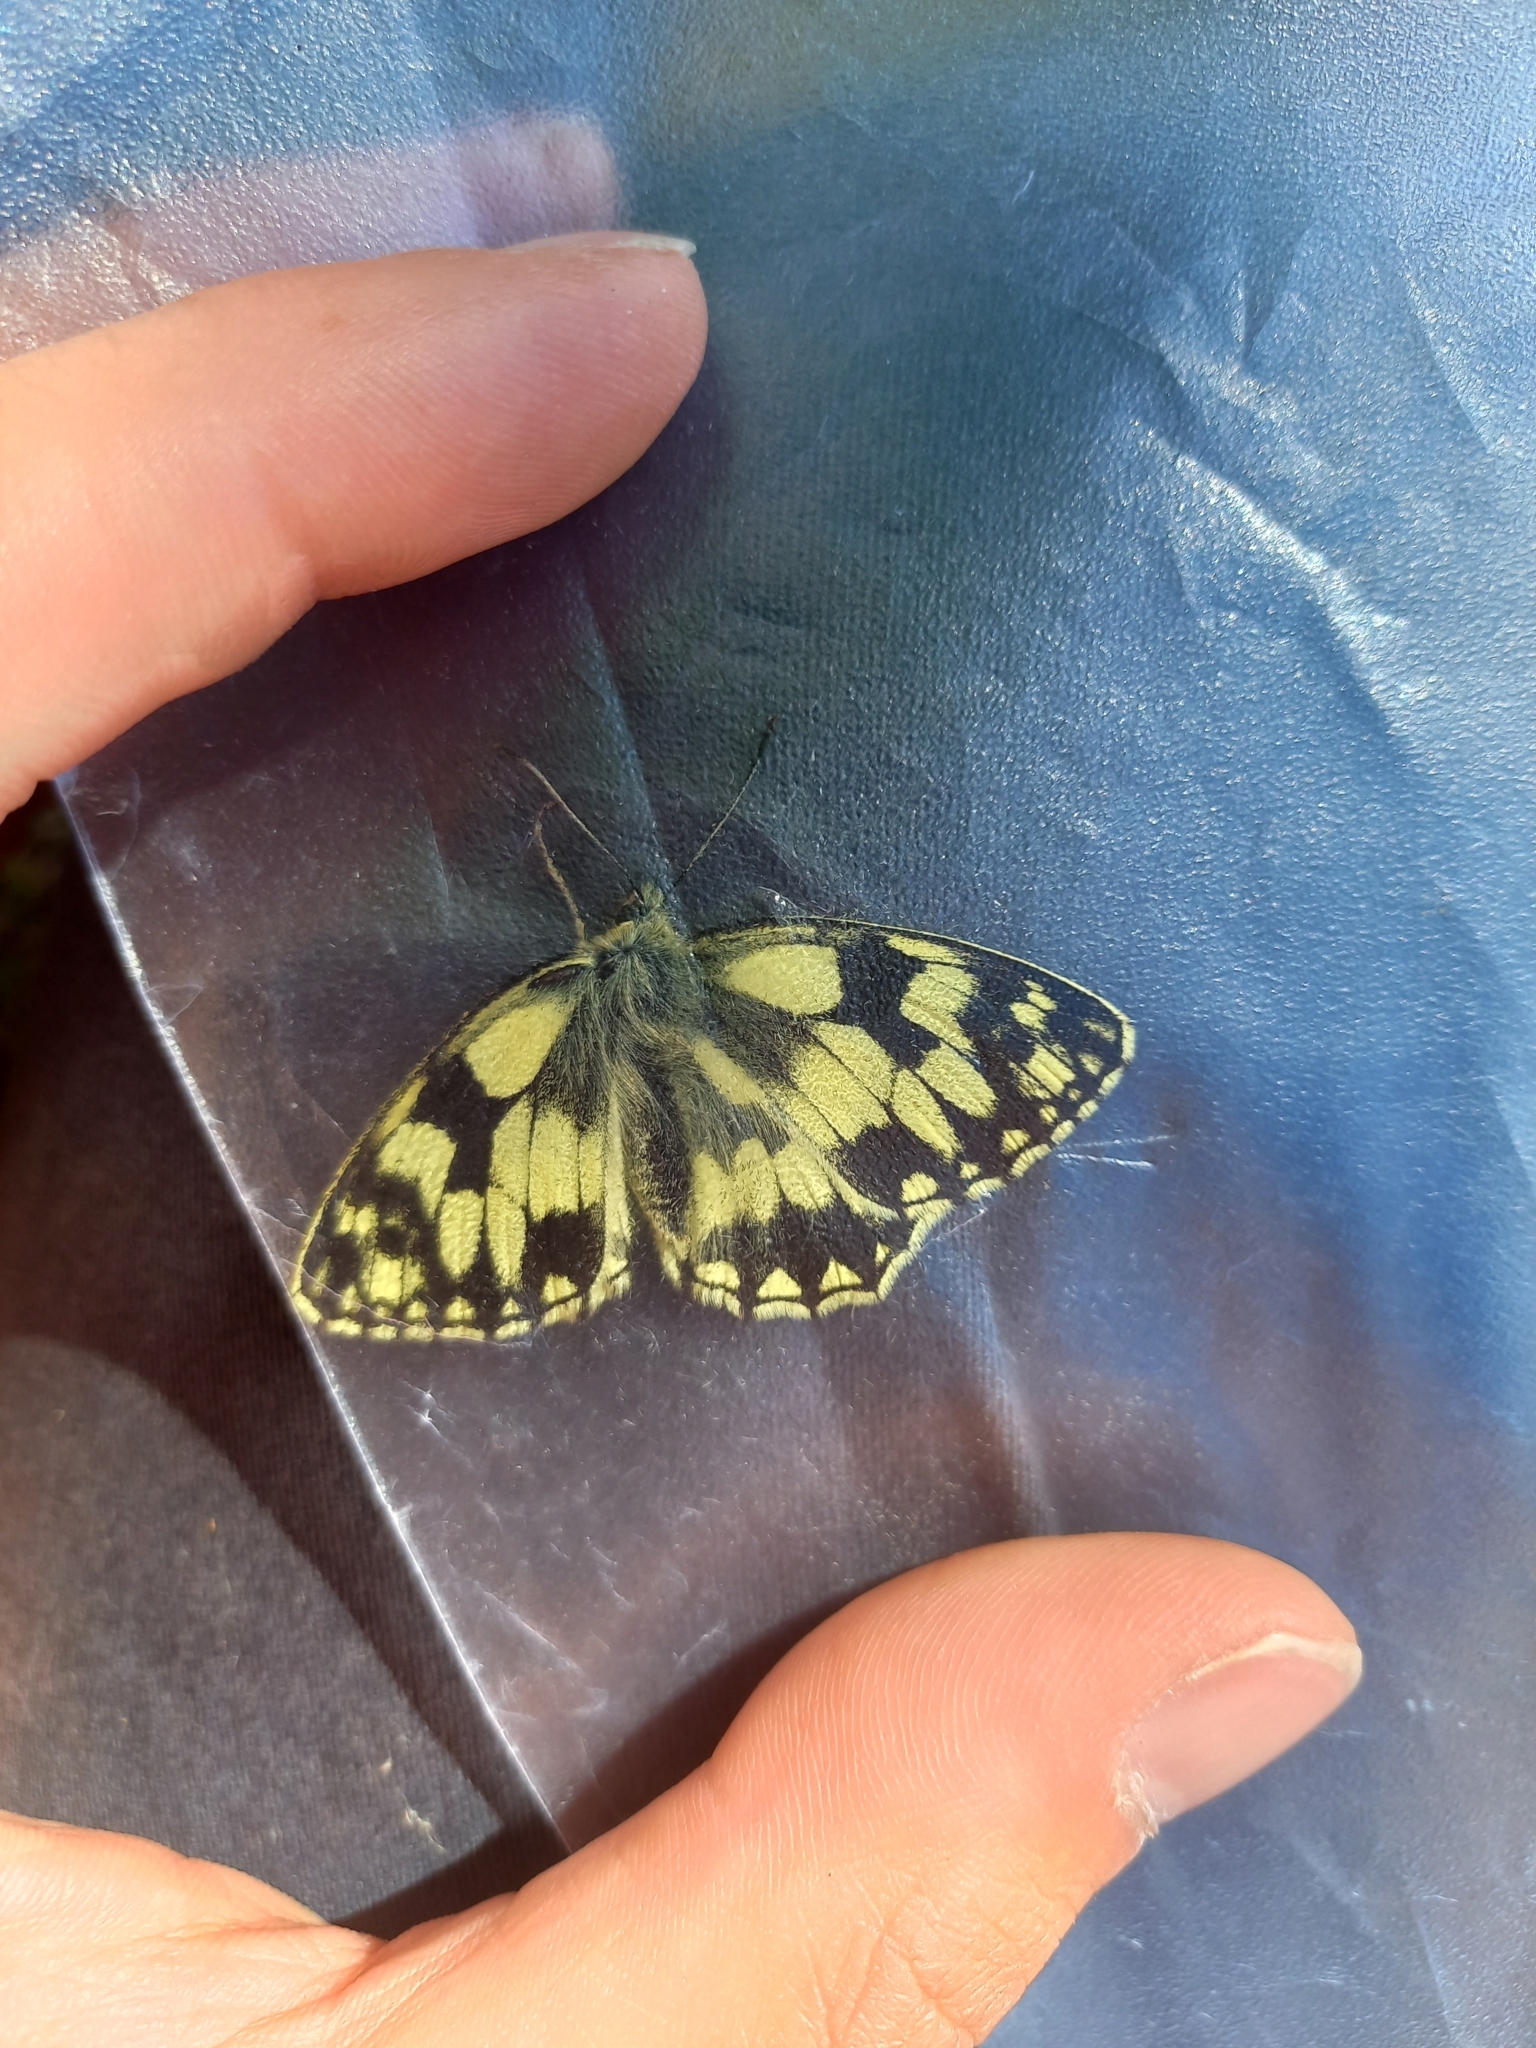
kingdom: Animalia
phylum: Arthropoda
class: Insecta
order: Lepidoptera
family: Nymphalidae
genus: Melanargia
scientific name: Melanargia galathea
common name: Marbled white
